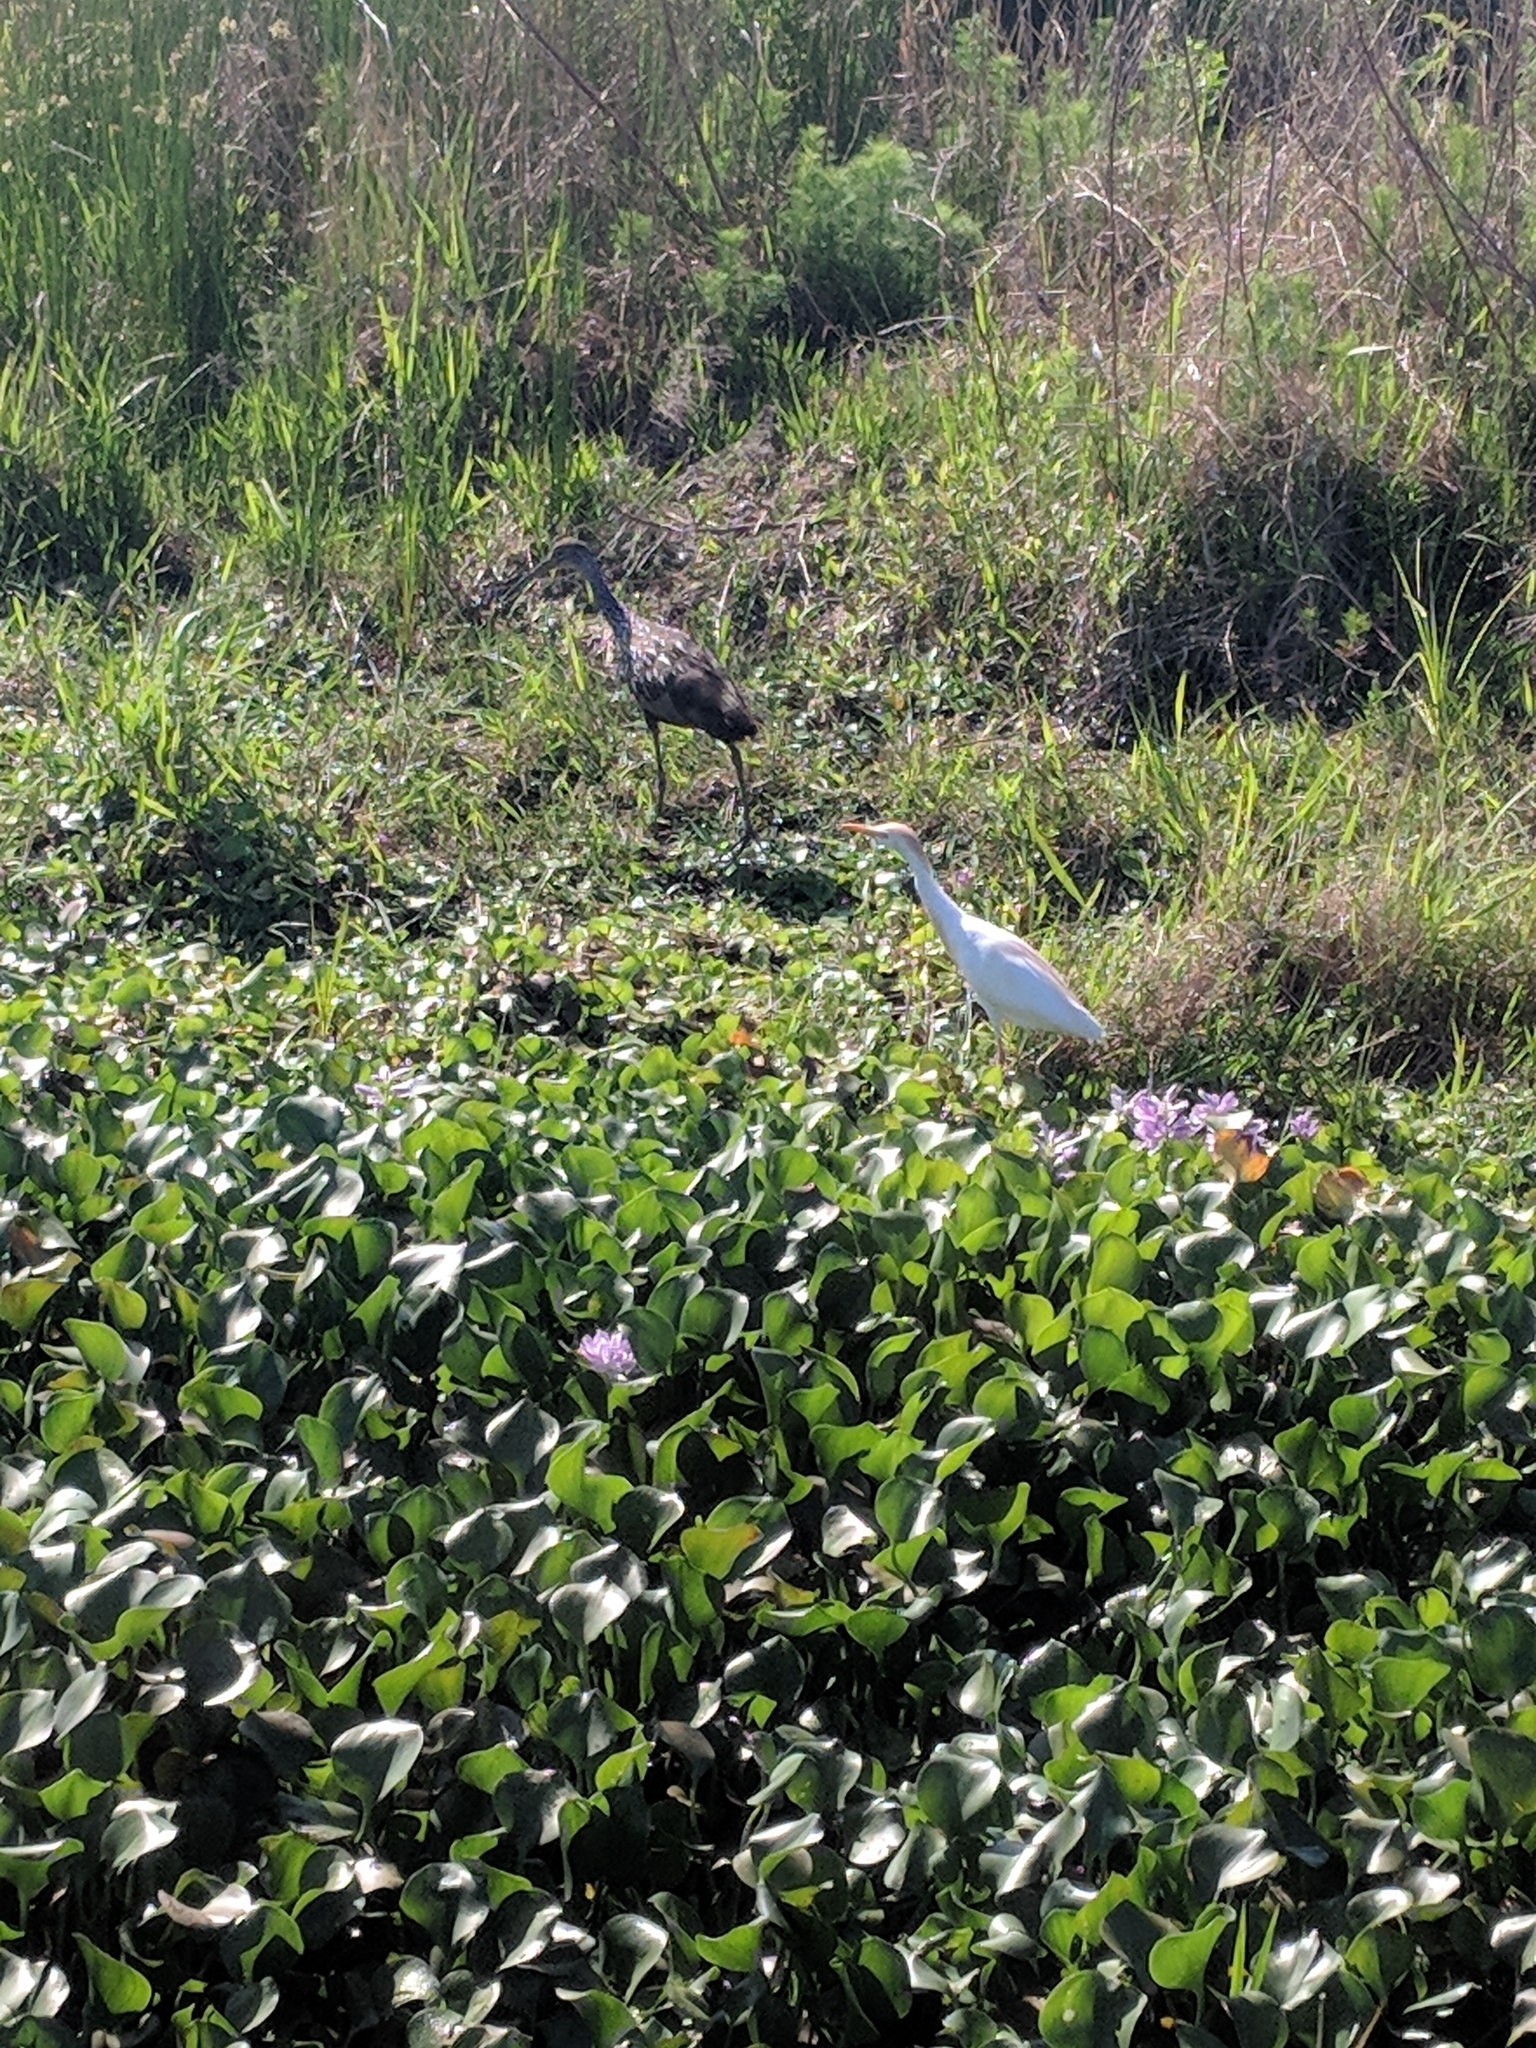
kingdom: Animalia
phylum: Chordata
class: Aves
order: Pelecaniformes
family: Ardeidae
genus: Bubulcus
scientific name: Bubulcus ibis
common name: Cattle egret
